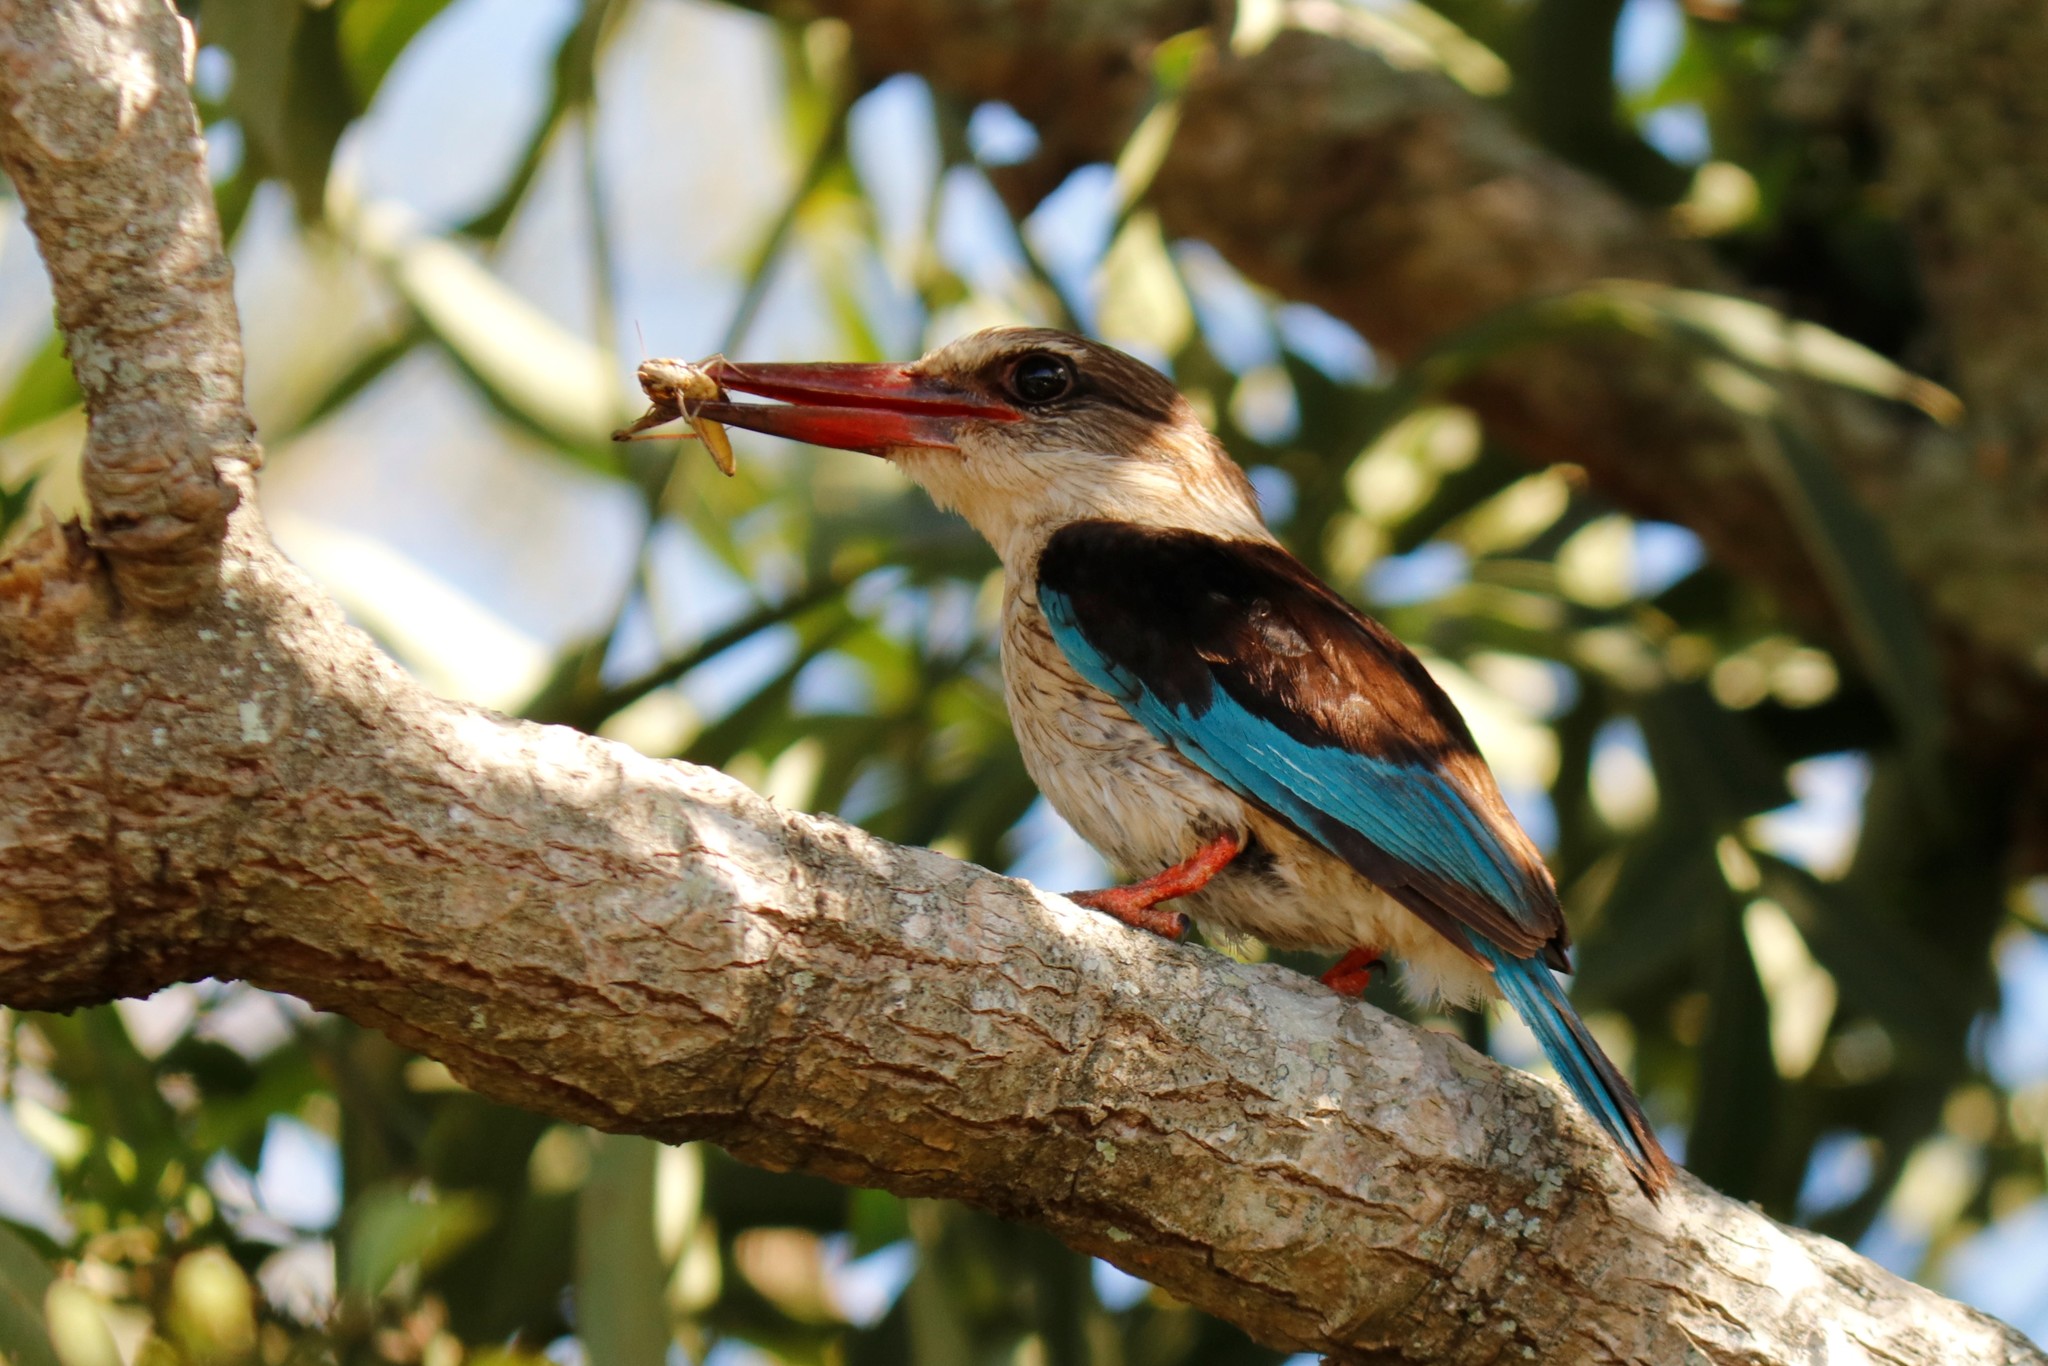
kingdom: Animalia
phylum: Chordata
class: Aves
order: Coraciiformes
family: Alcedinidae
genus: Halcyon
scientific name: Halcyon albiventris
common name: Brown-hooded kingfisher
